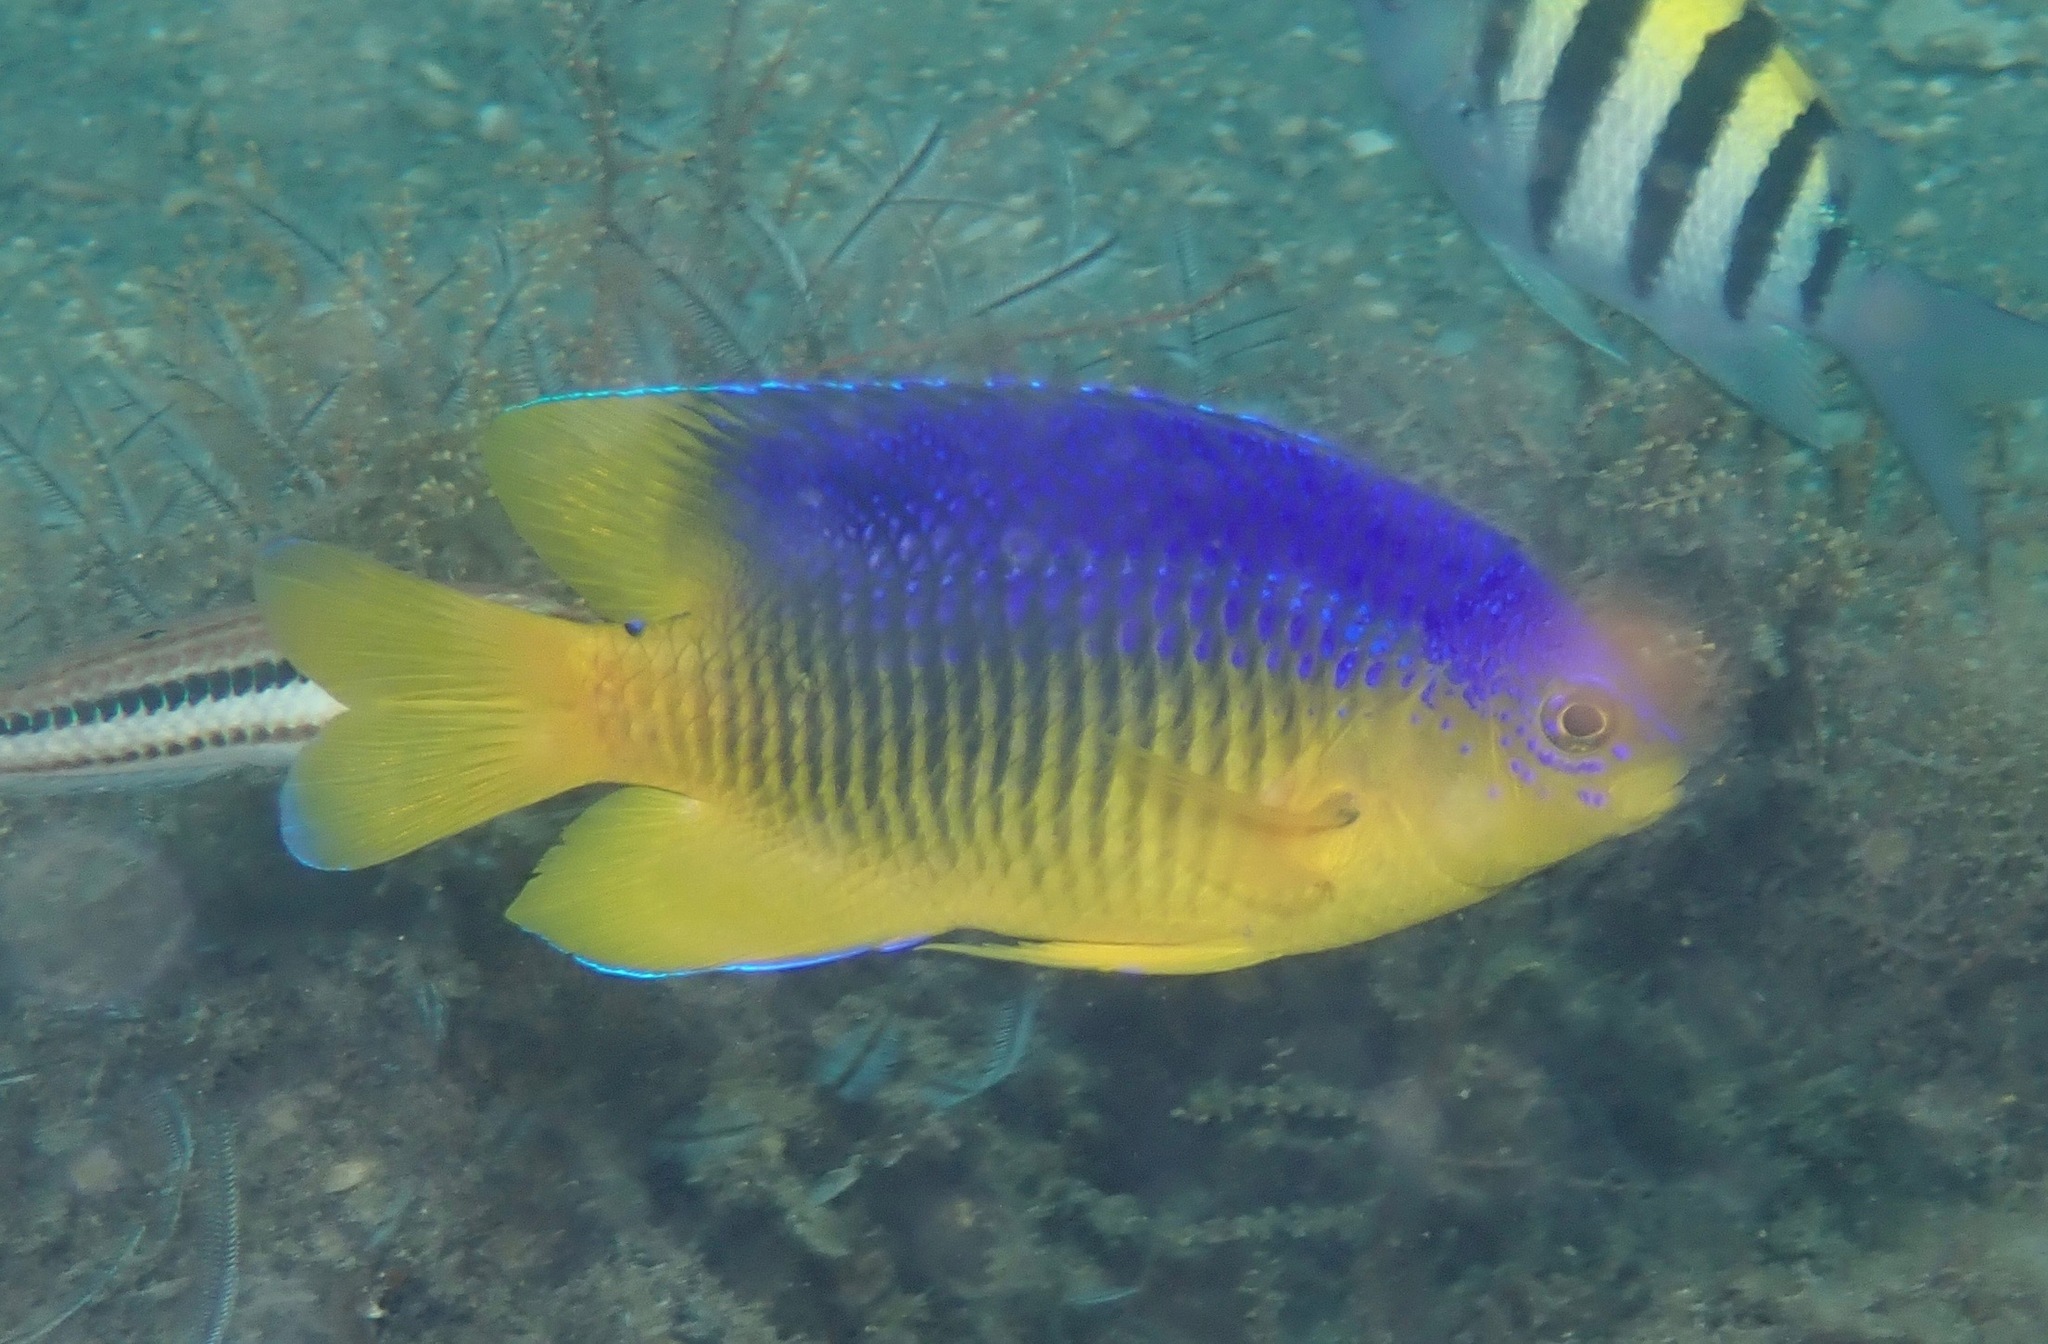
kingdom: Animalia
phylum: Chordata
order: Perciformes
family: Pomacentridae
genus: Stegastes
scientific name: Stegastes xanthurus
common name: Cocoa damselfish
